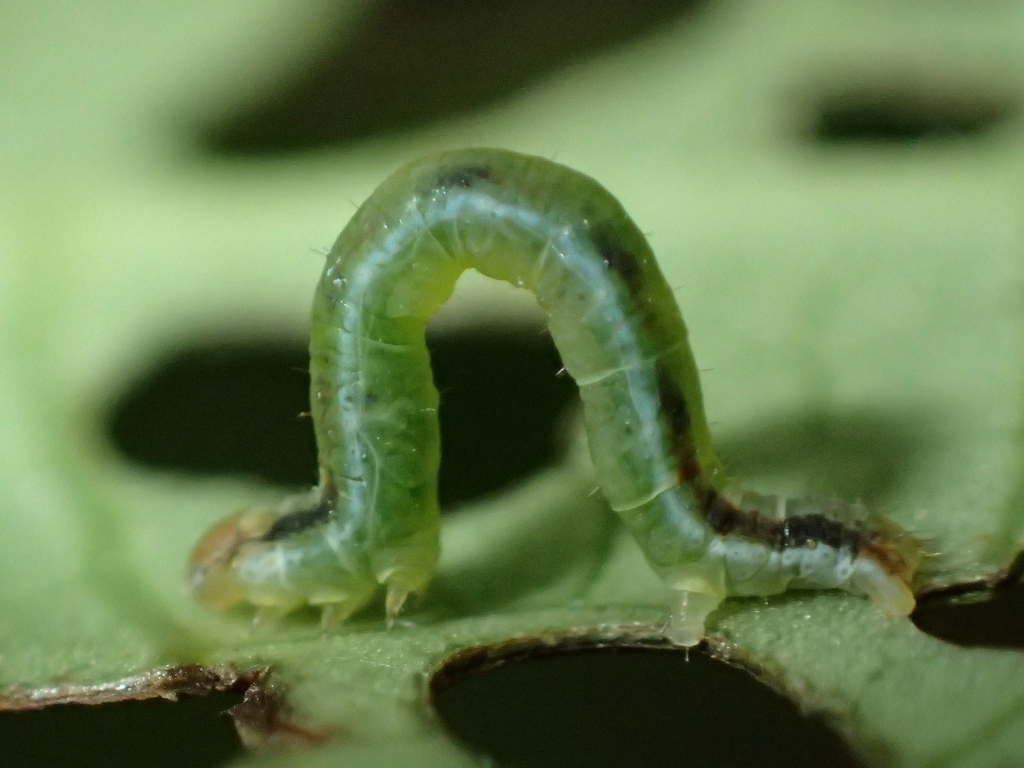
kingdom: Animalia
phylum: Arthropoda
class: Insecta
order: Lepidoptera
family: Geometridae
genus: Cleora
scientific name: Cleora scriptaria
